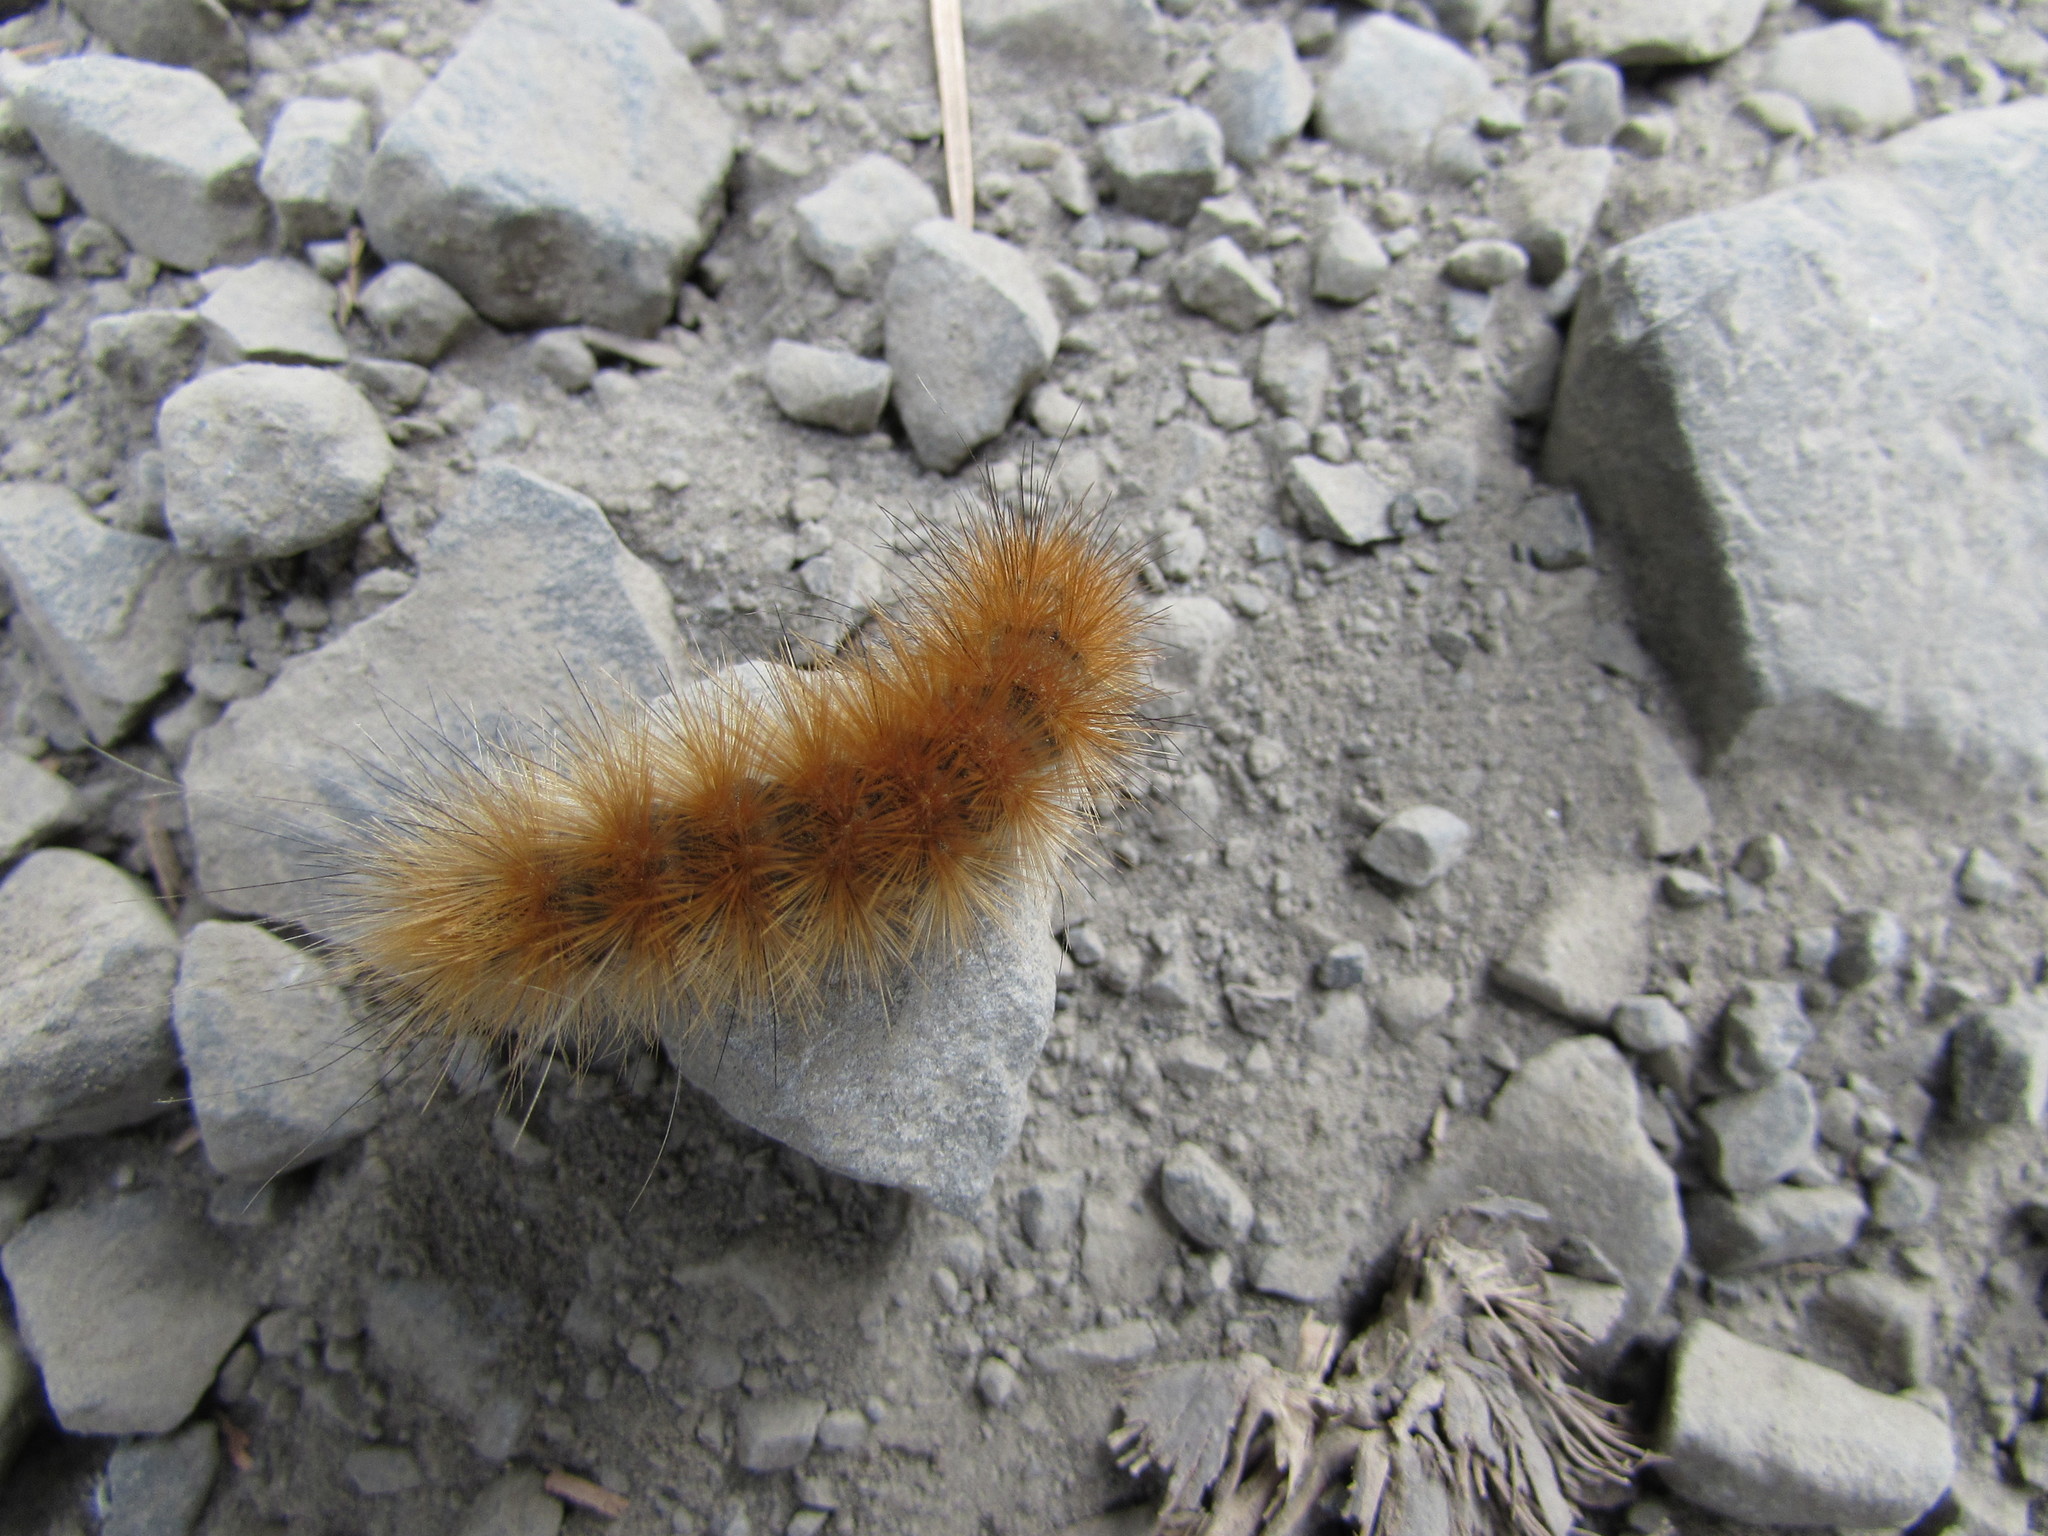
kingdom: Animalia
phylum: Arthropoda
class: Insecta
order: Lepidoptera
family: Erebidae
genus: Spilosoma
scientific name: Spilosoma virginica
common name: Virginia tiger moth
